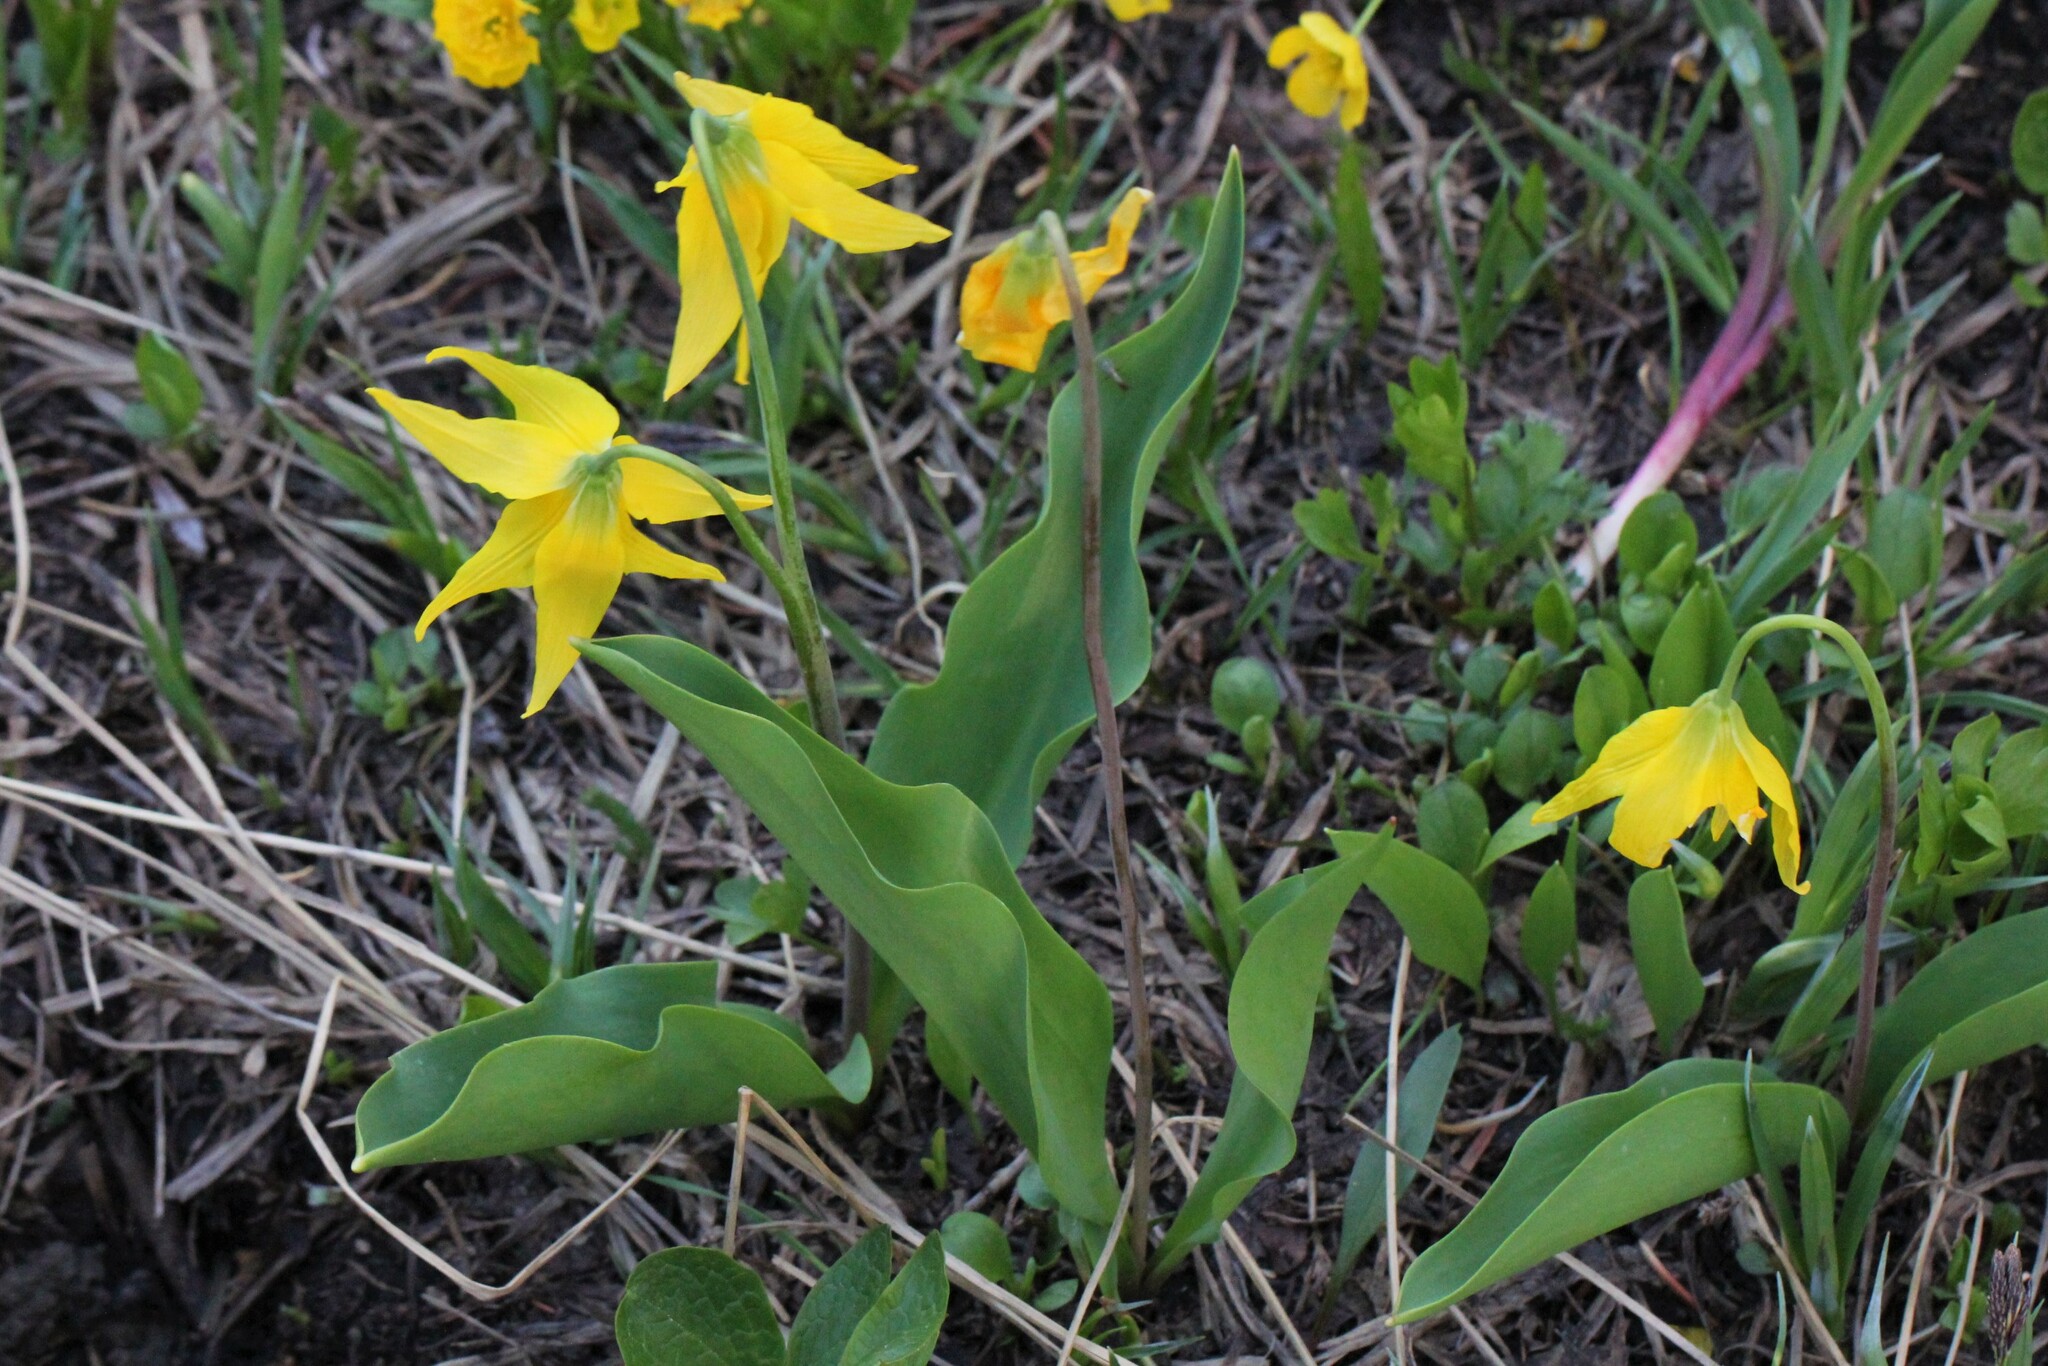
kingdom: Plantae
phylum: Tracheophyta
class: Liliopsida
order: Liliales
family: Liliaceae
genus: Erythronium
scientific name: Erythronium grandiflorum
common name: Avalanche-lily
